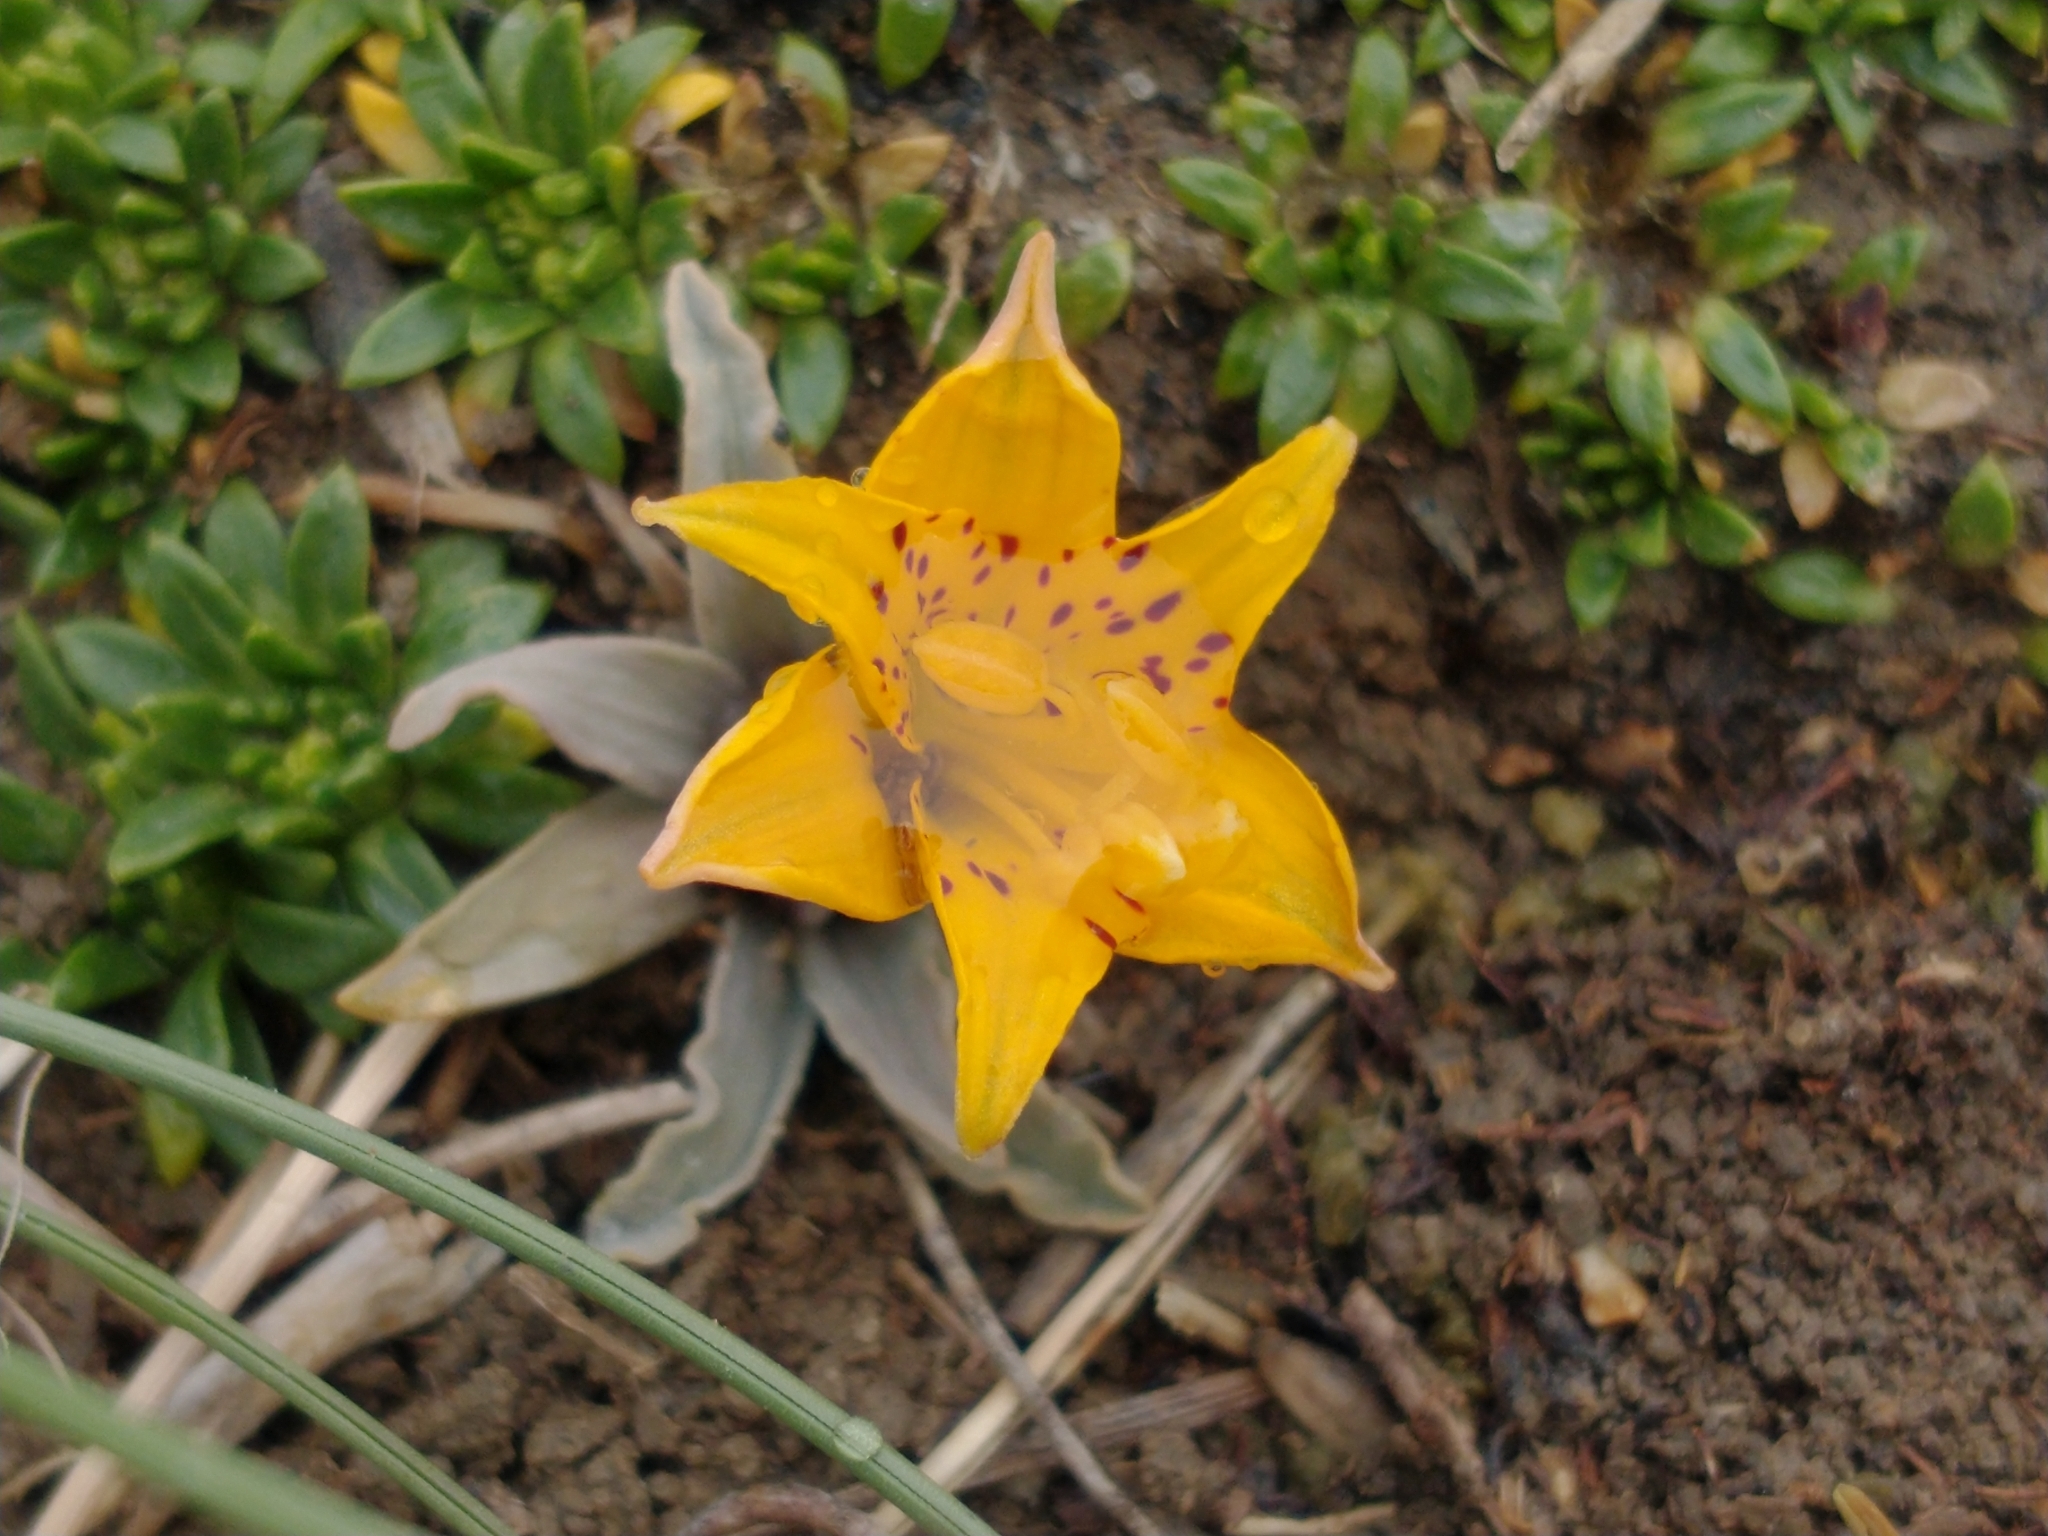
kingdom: Plantae
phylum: Tracheophyta
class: Liliopsida
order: Liliales
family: Alstroemeriaceae
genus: Alstroemeria
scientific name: Alstroemeria patagonica
